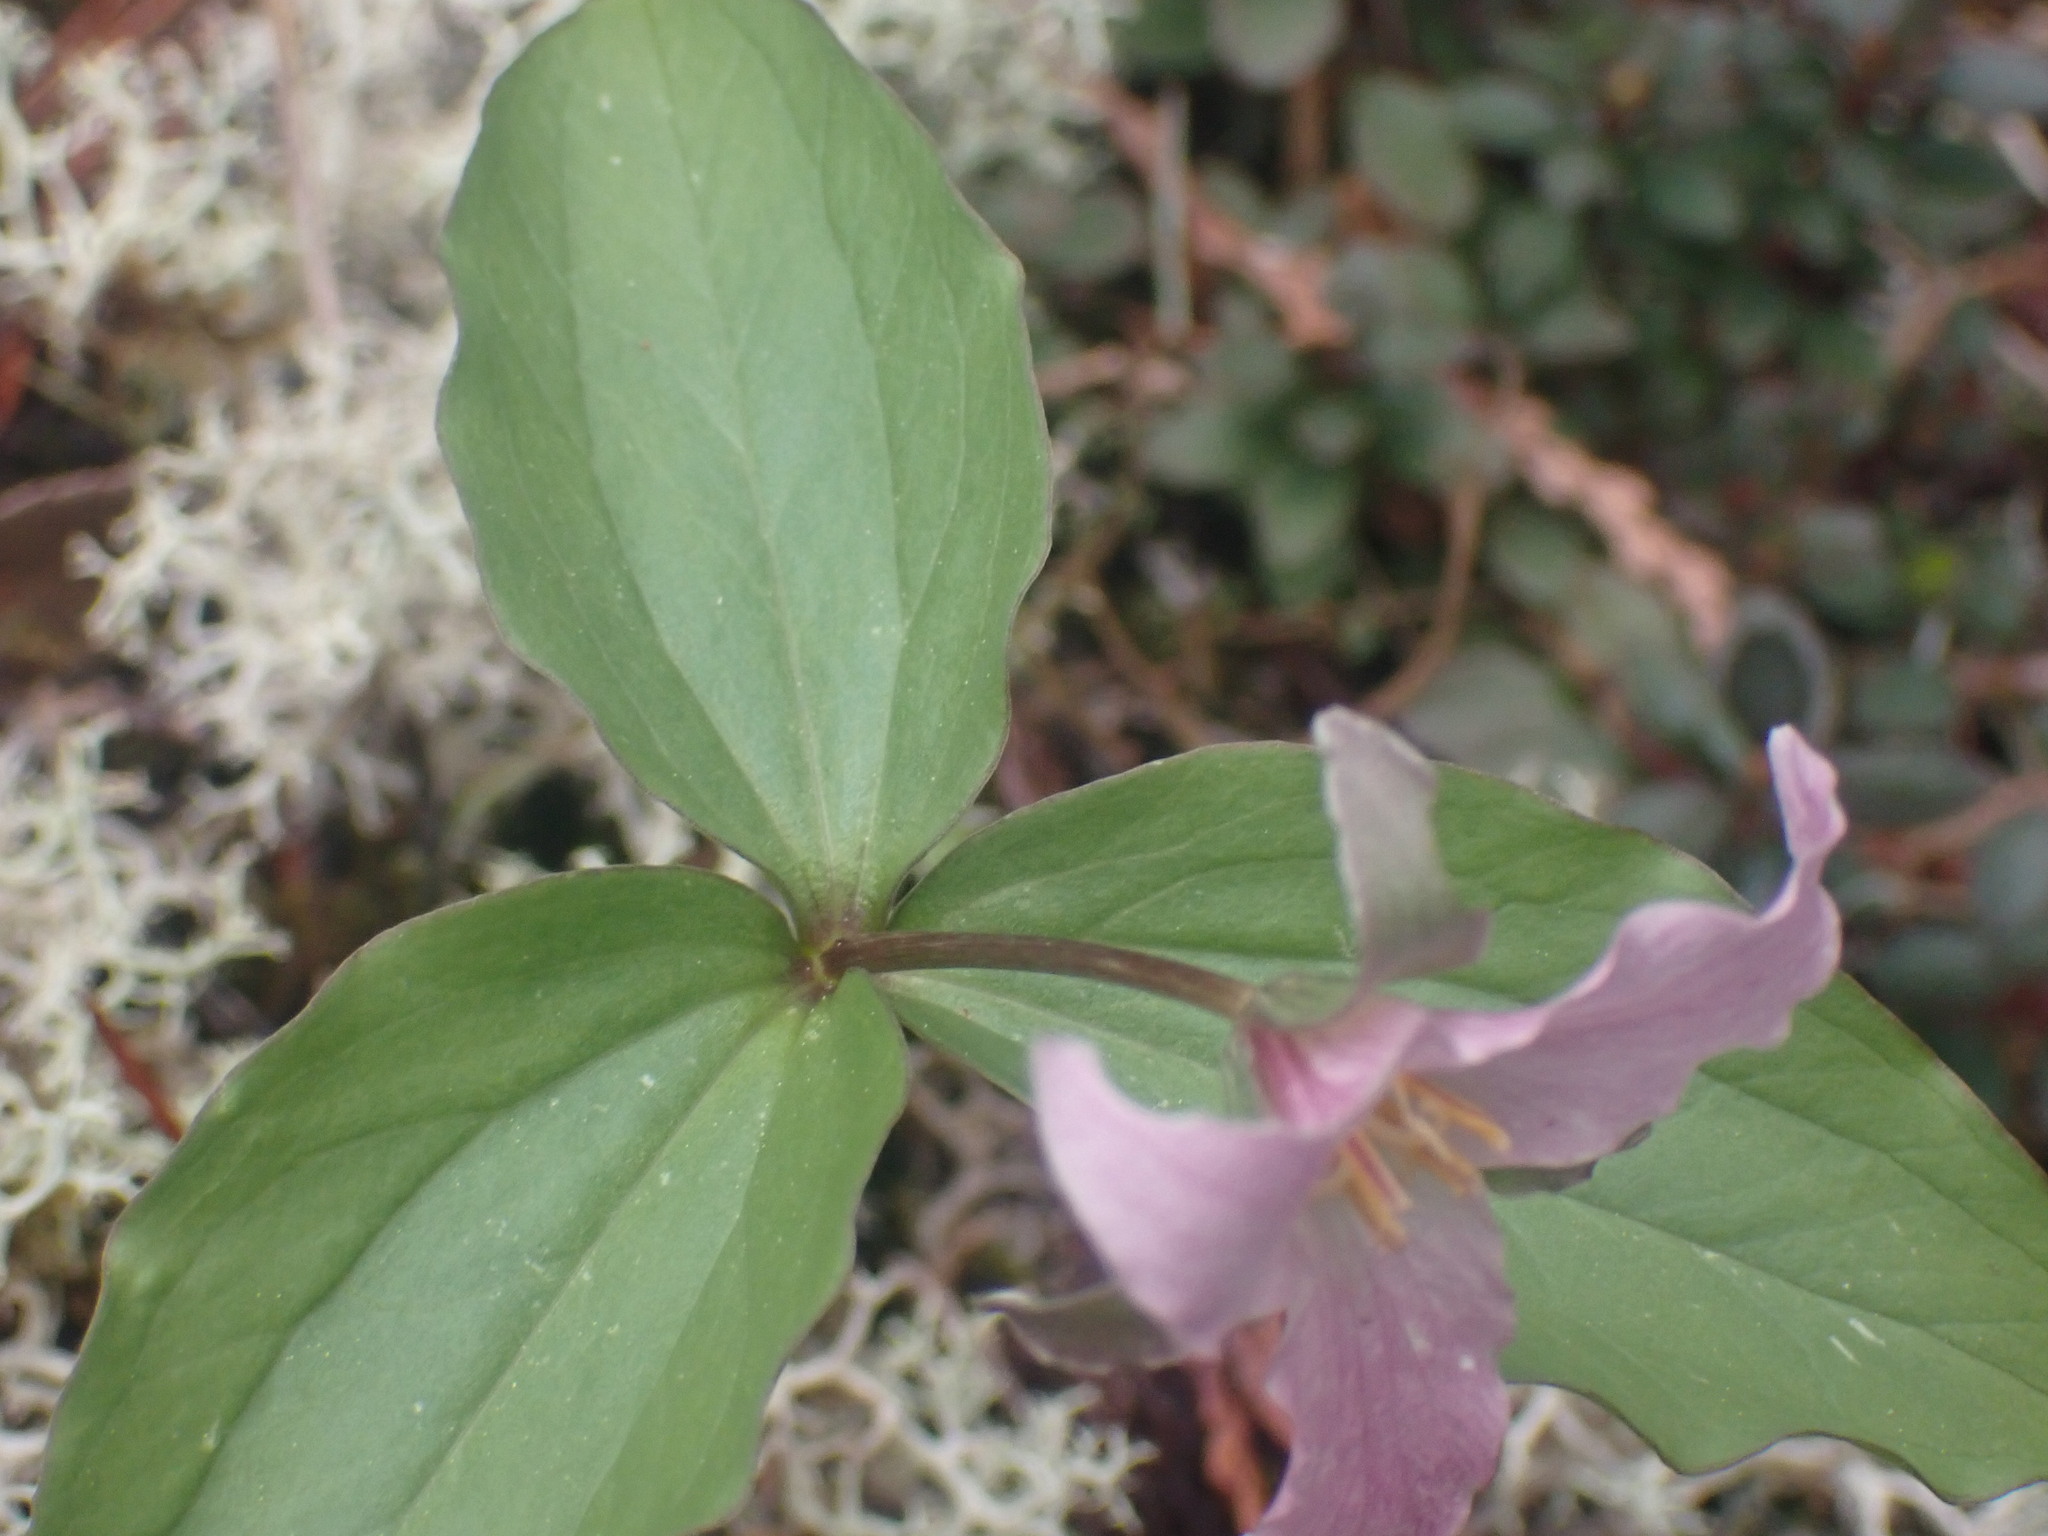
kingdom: Plantae
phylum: Tracheophyta
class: Liliopsida
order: Liliales
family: Melanthiaceae
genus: Trillium
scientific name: Trillium hibbersonii
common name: Hibberson's trillium
